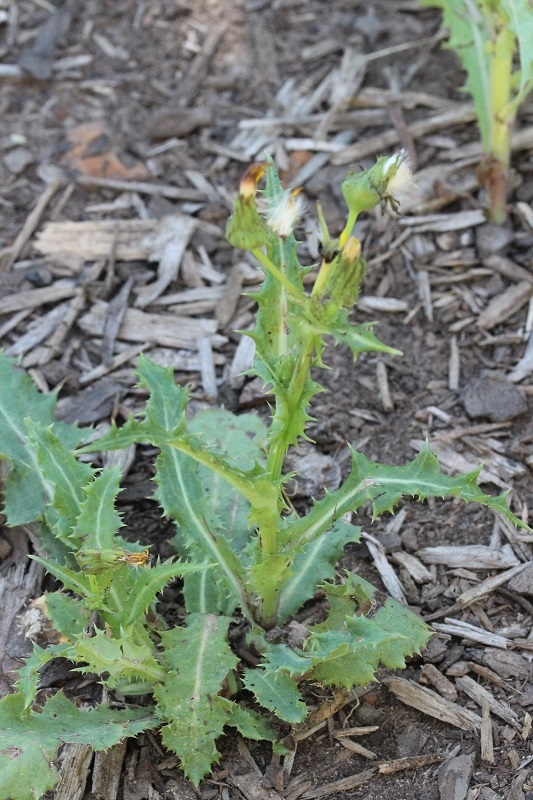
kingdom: Plantae
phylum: Tracheophyta
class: Magnoliopsida
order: Asterales
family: Asteraceae
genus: Sonchus
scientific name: Sonchus asper
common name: Prickly sow-thistle
